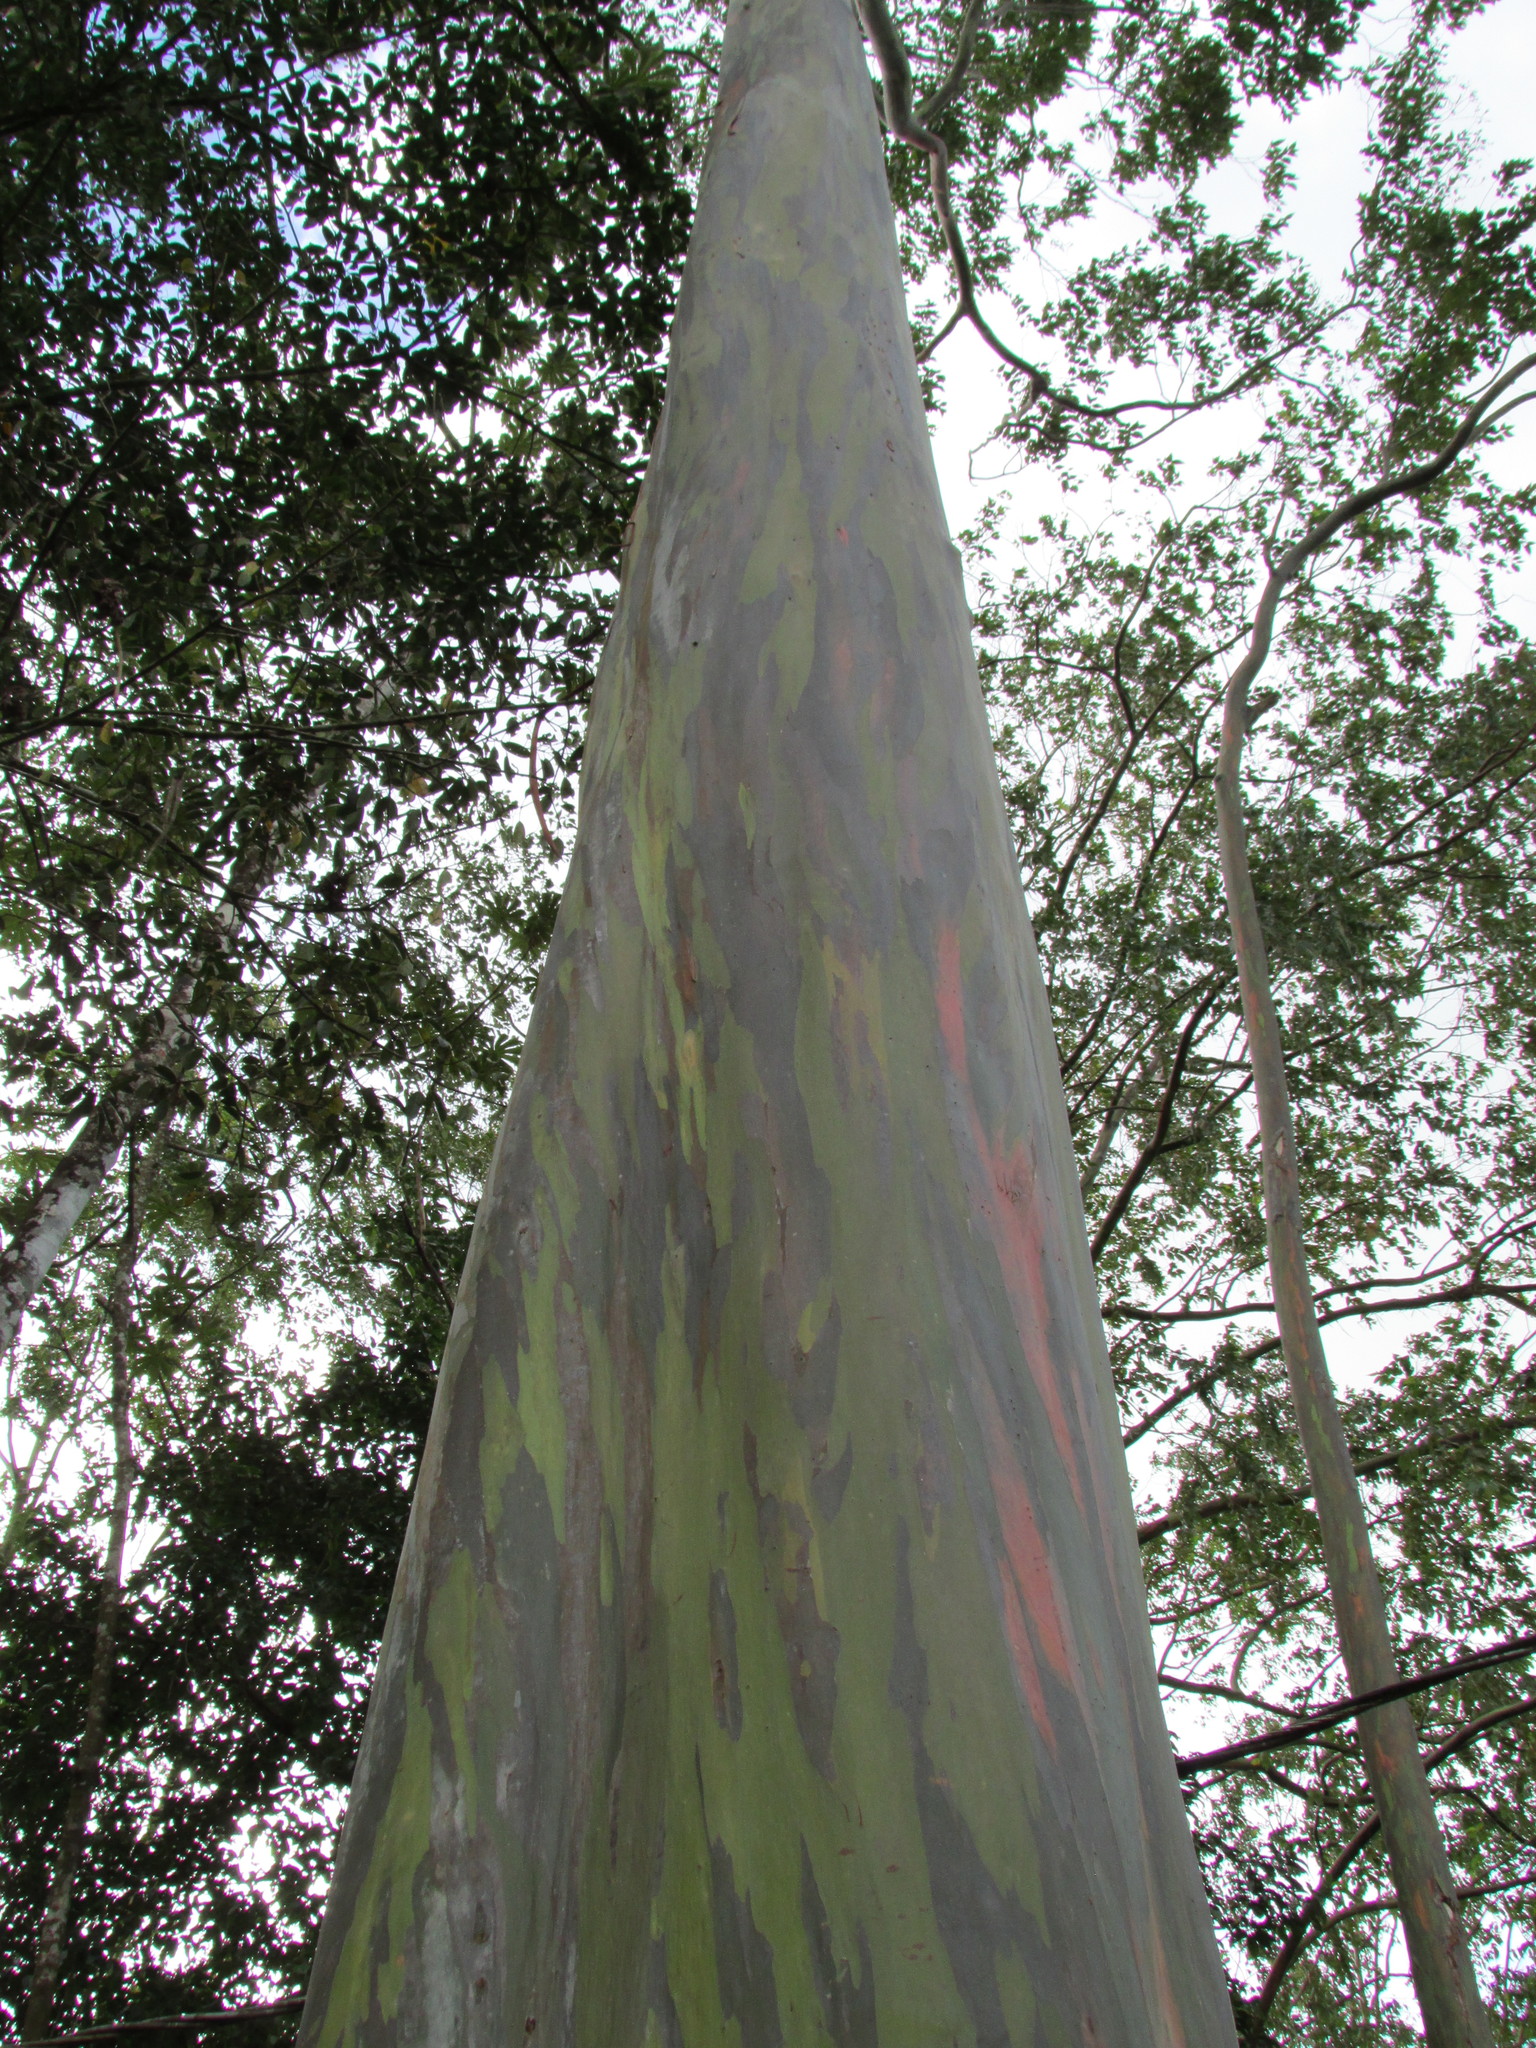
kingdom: Plantae
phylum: Tracheophyta
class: Magnoliopsida
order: Myrtales
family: Myrtaceae
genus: Eucalyptus
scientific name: Eucalyptus deglupta
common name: Mindanao gum
